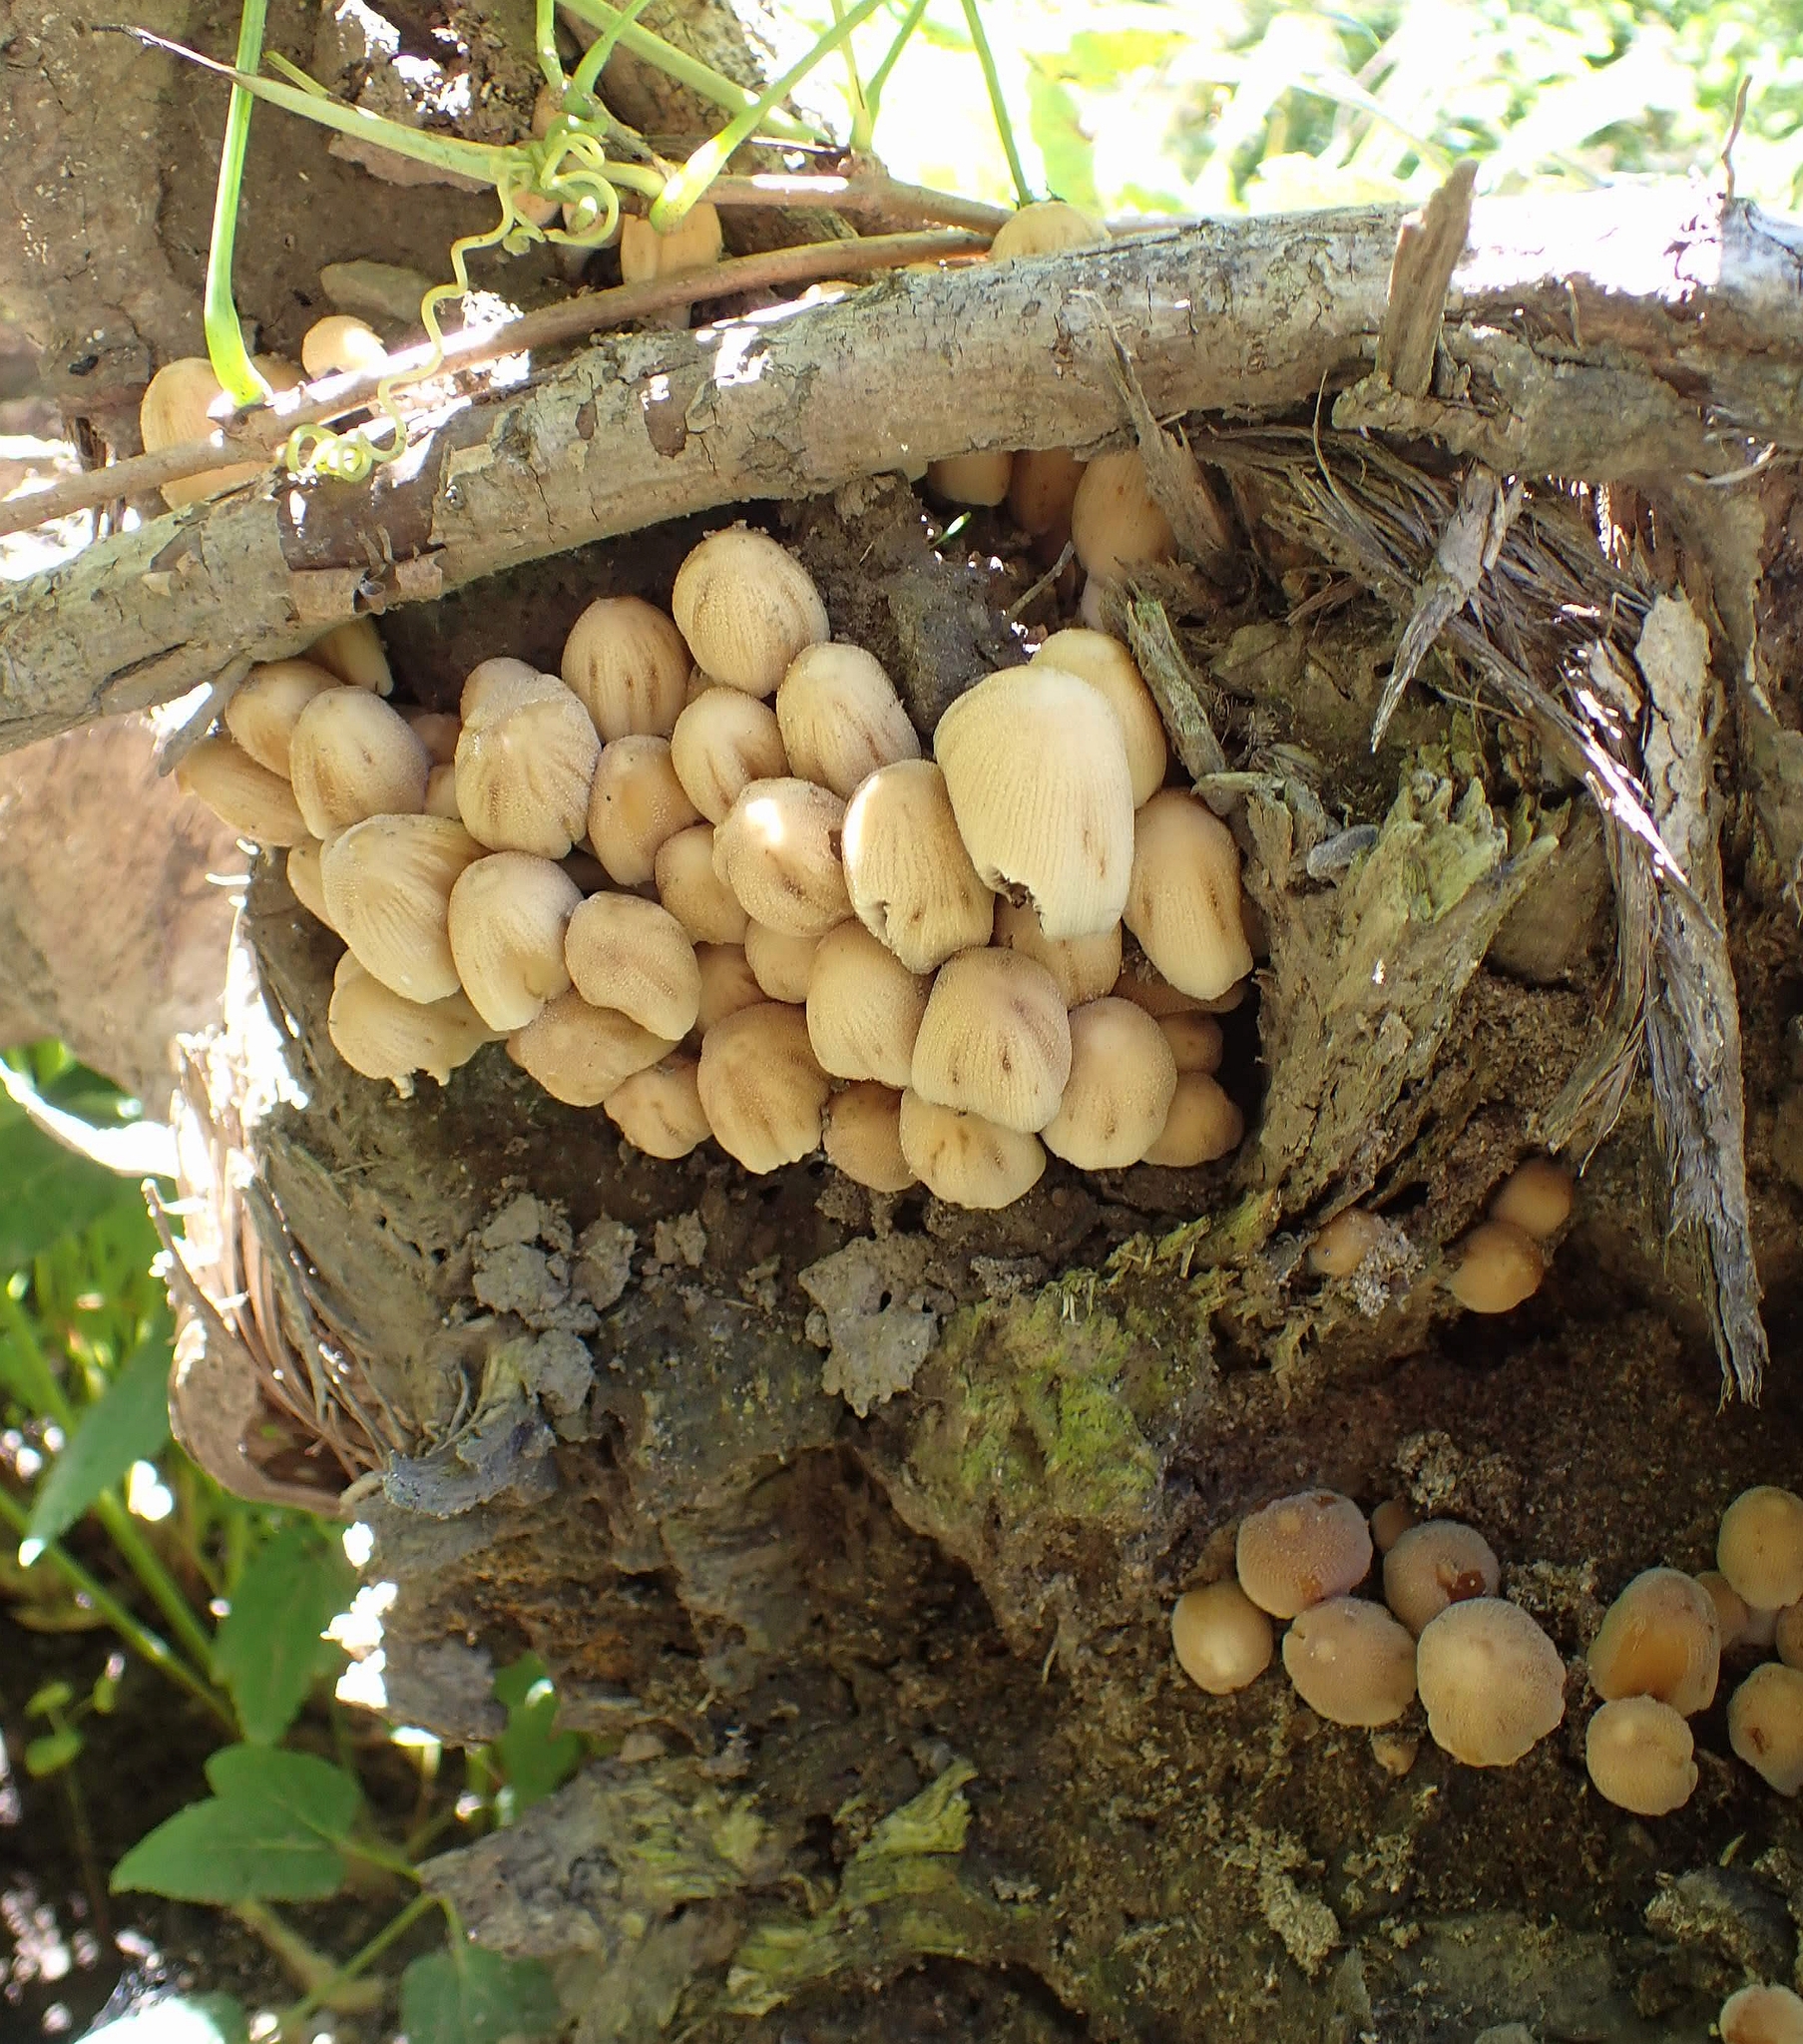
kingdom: Fungi
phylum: Basidiomycota
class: Agaricomycetes
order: Agaricales
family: Mycenaceae
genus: Mycena
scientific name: Mycena inclinata
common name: Clustered bonnet
